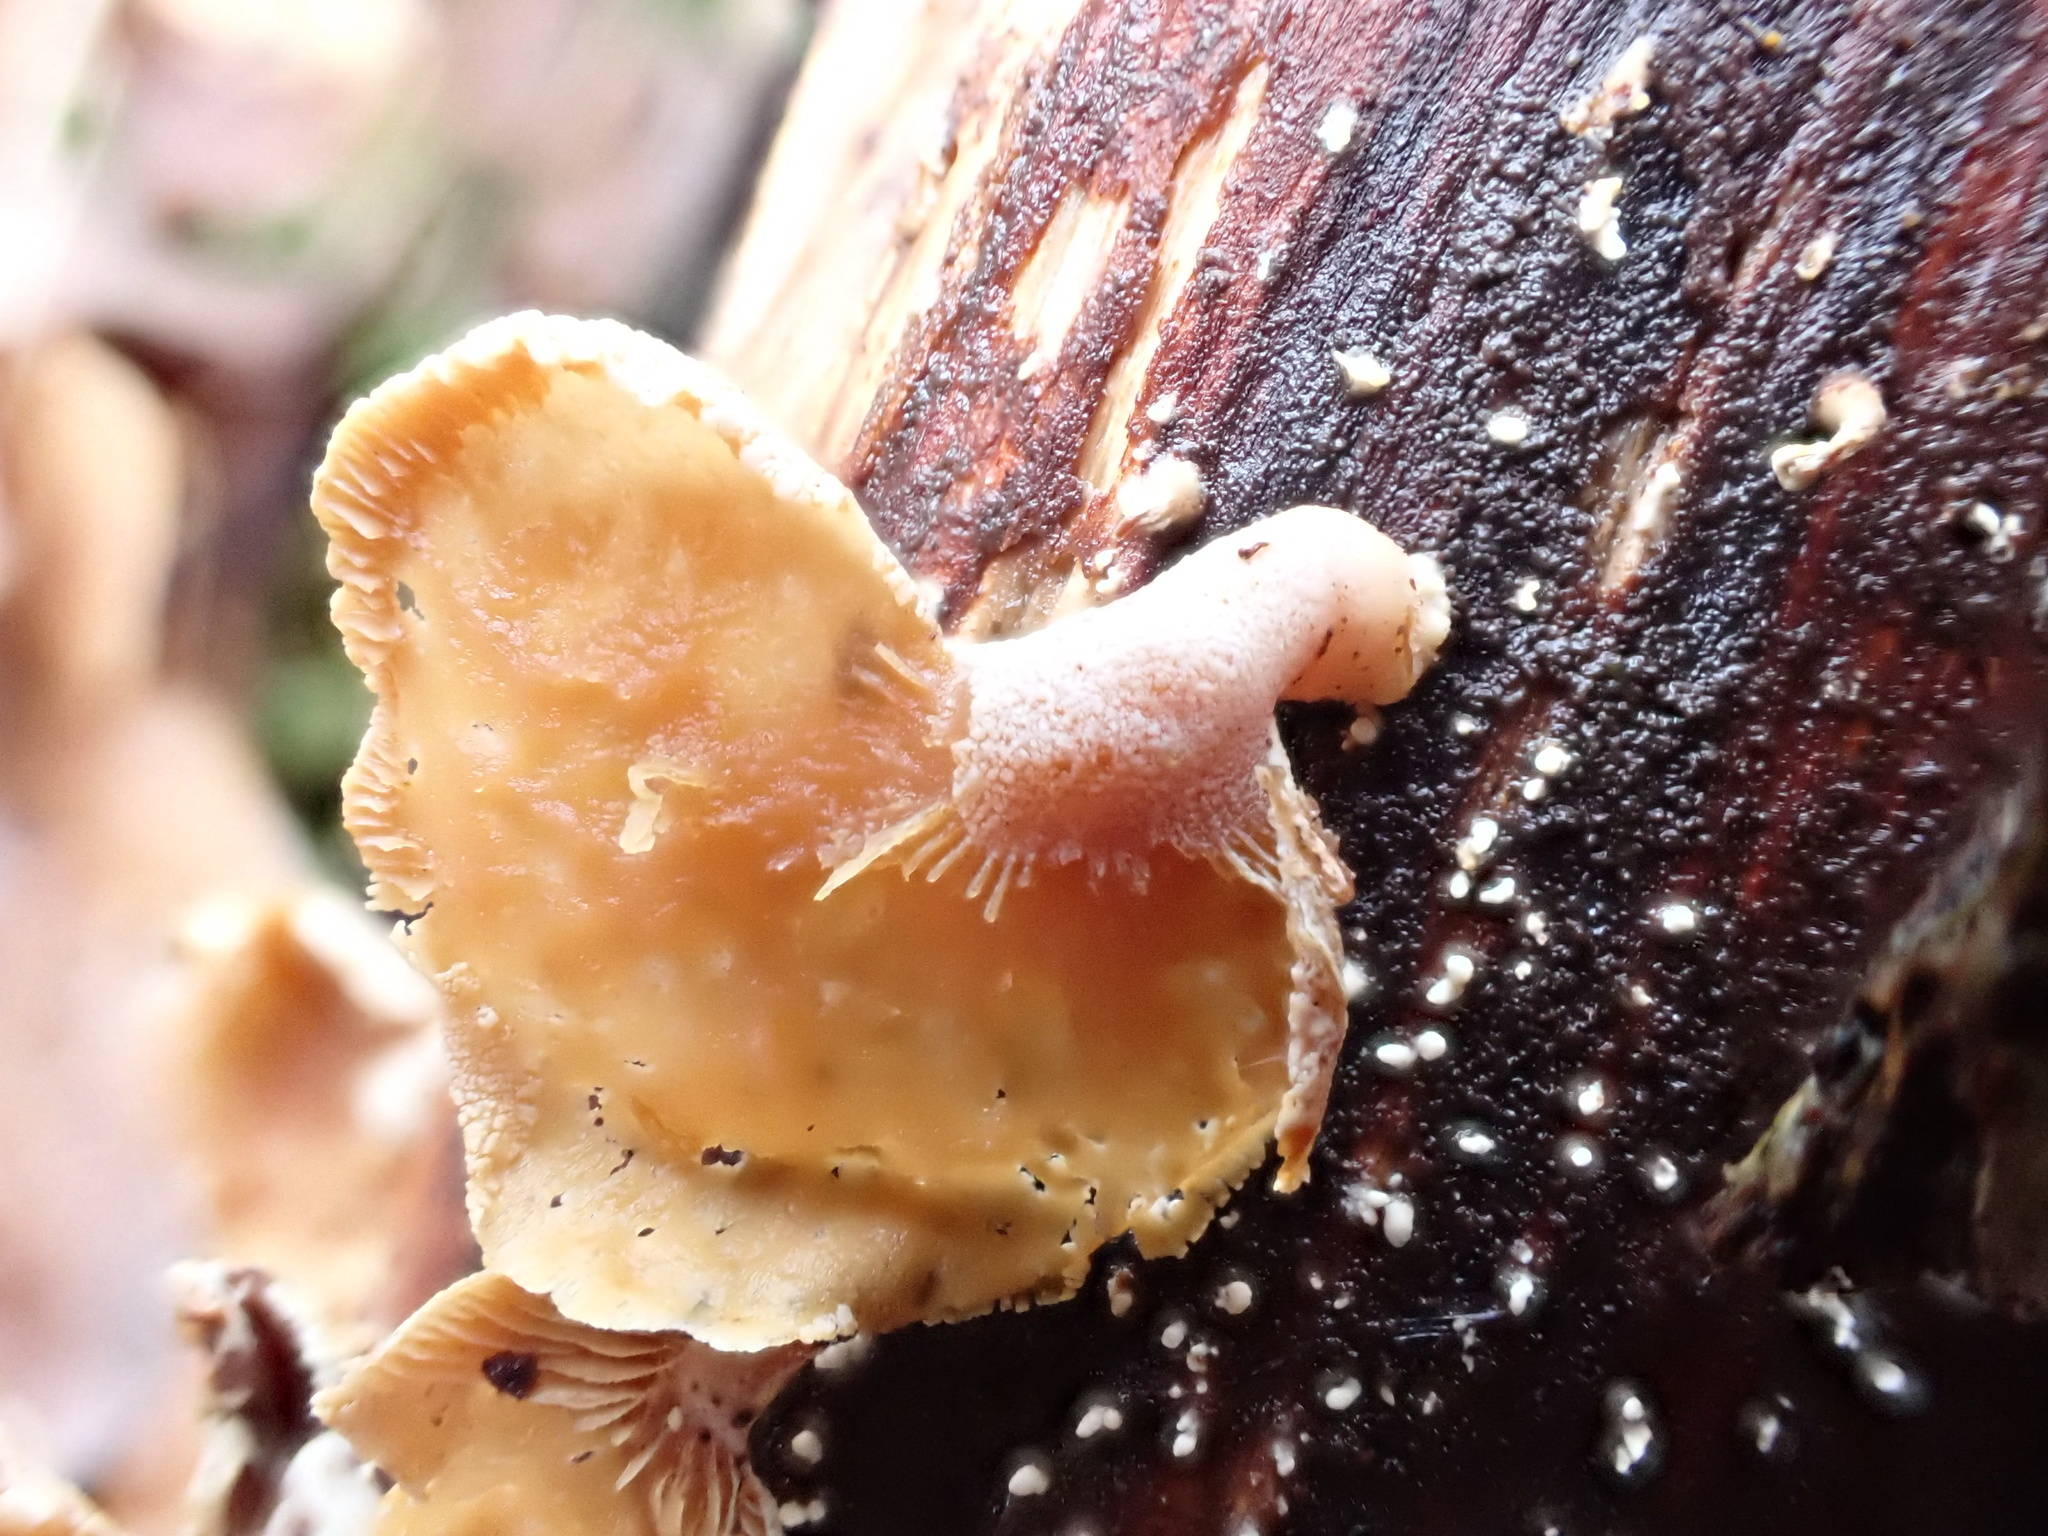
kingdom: Fungi
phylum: Basidiomycota
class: Agaricomycetes
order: Agaricales
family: Mycenaceae
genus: Panellus
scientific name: Panellus stipticus
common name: Bitter oysterling
